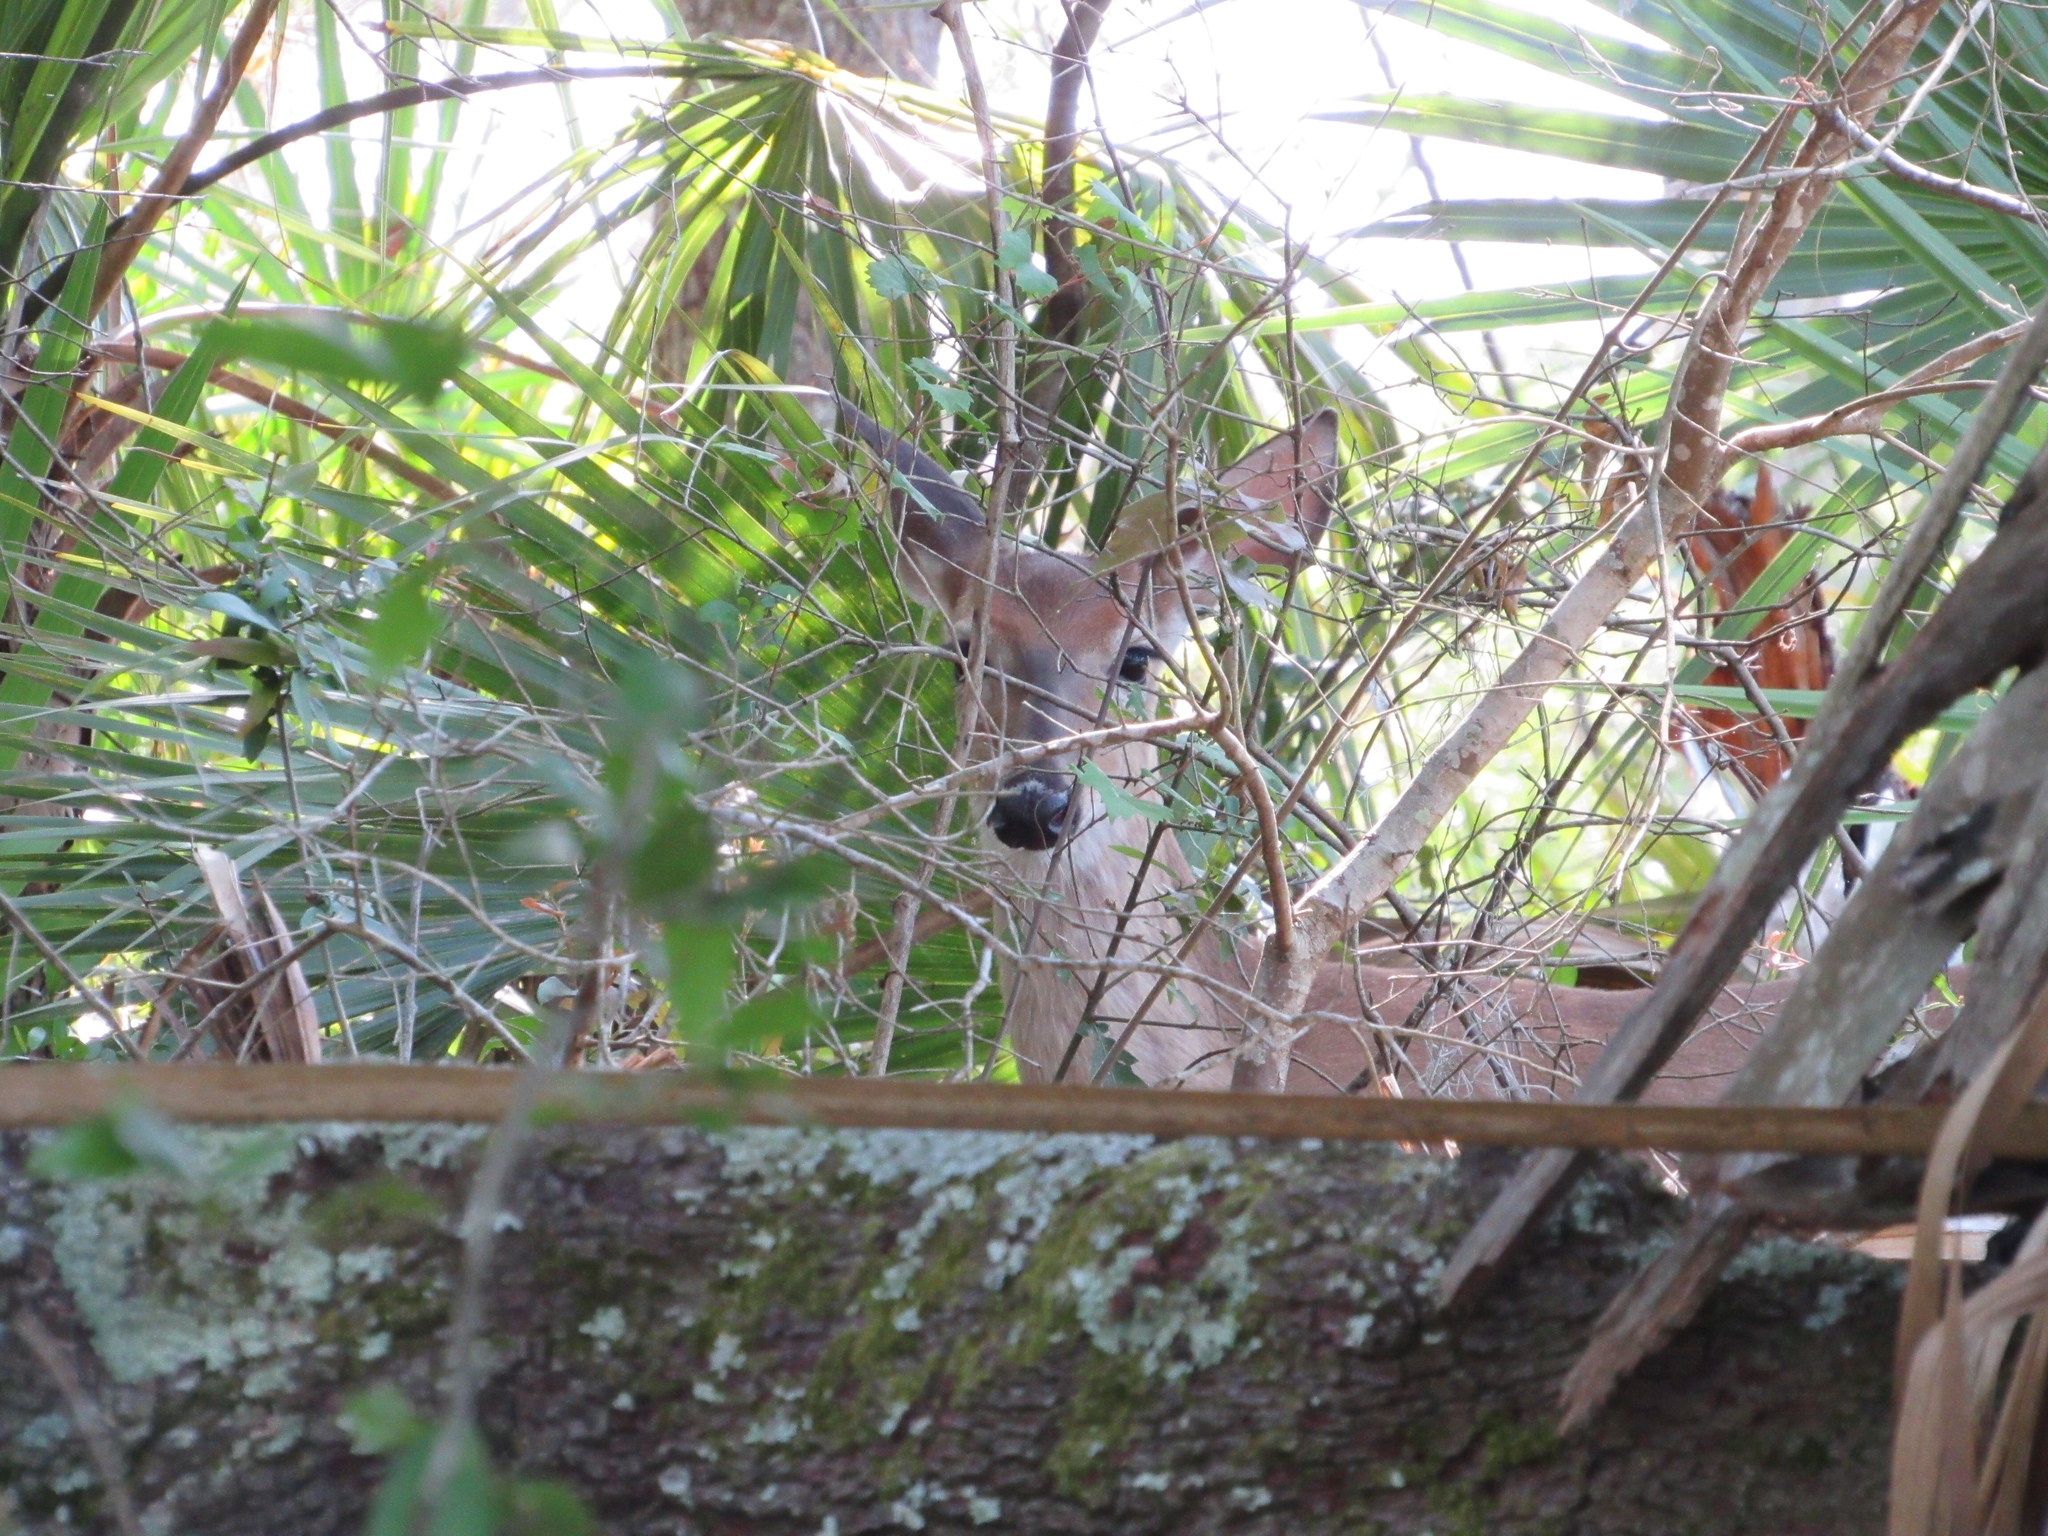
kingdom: Animalia
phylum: Chordata
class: Mammalia
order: Artiodactyla
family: Cervidae
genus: Odocoileus
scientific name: Odocoileus virginianus
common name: White-tailed deer
